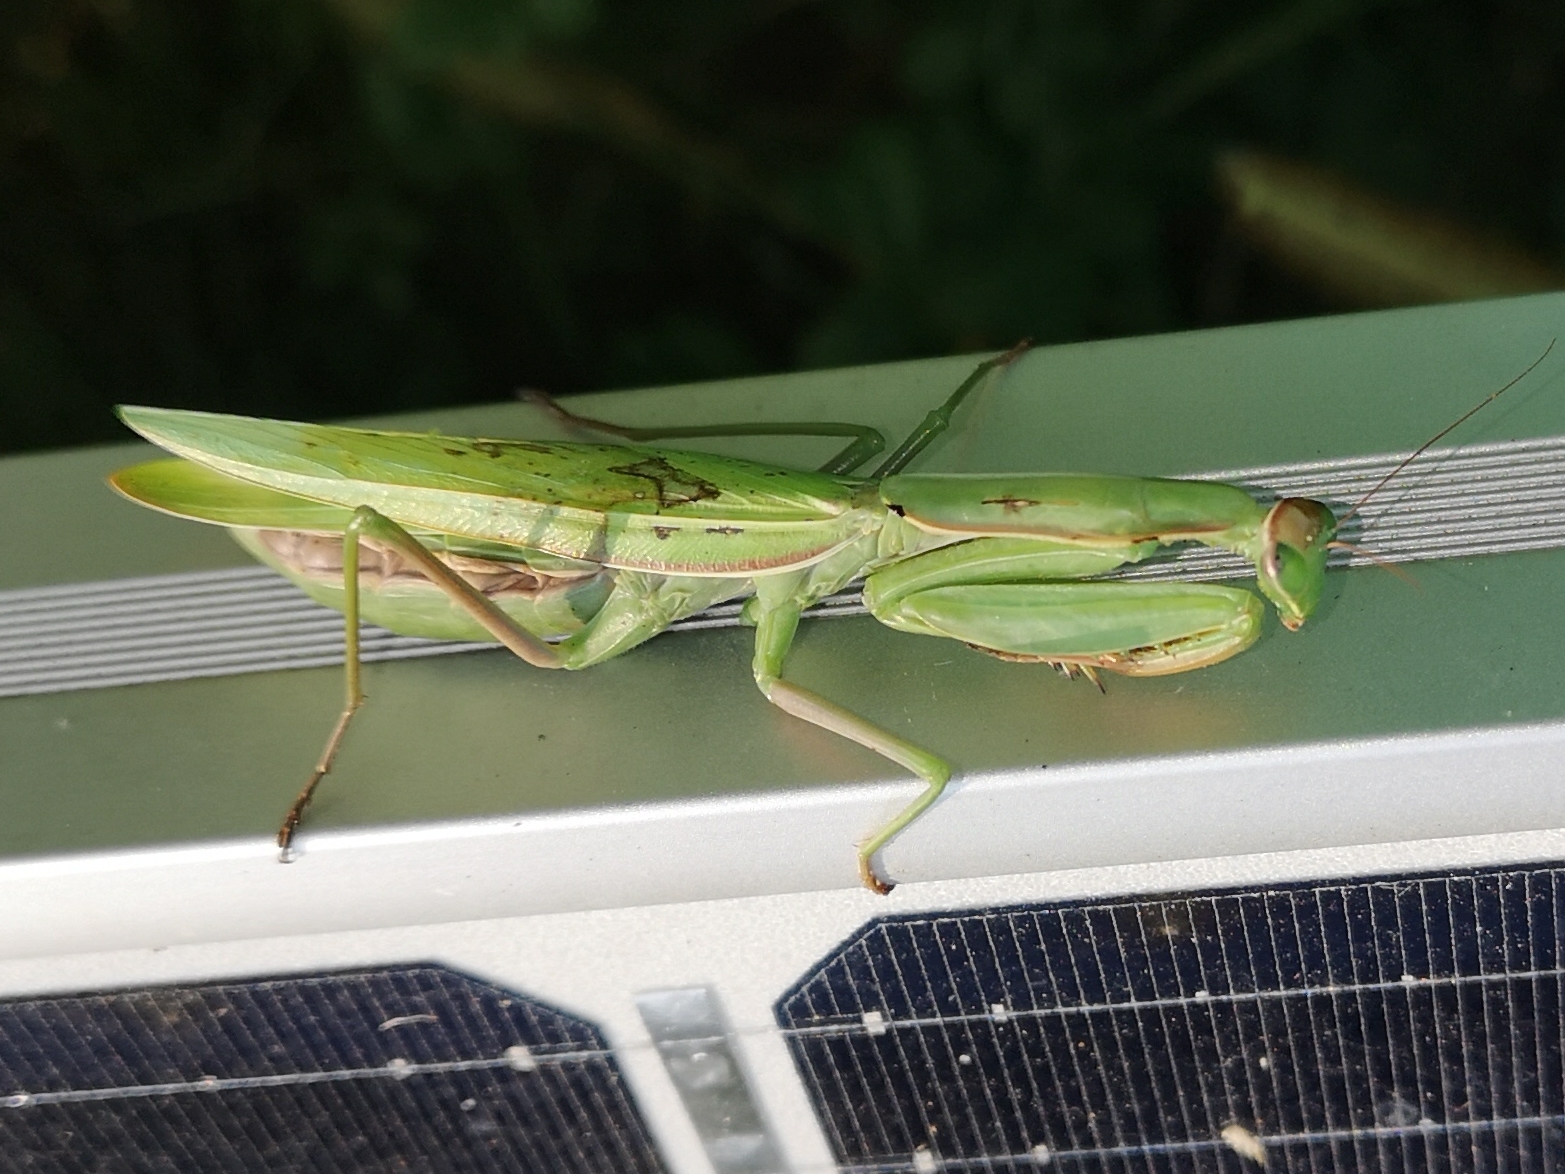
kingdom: Animalia
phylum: Arthropoda
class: Insecta
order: Mantodea
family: Mantidae
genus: Mantis
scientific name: Mantis religiosa
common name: Praying mantis
